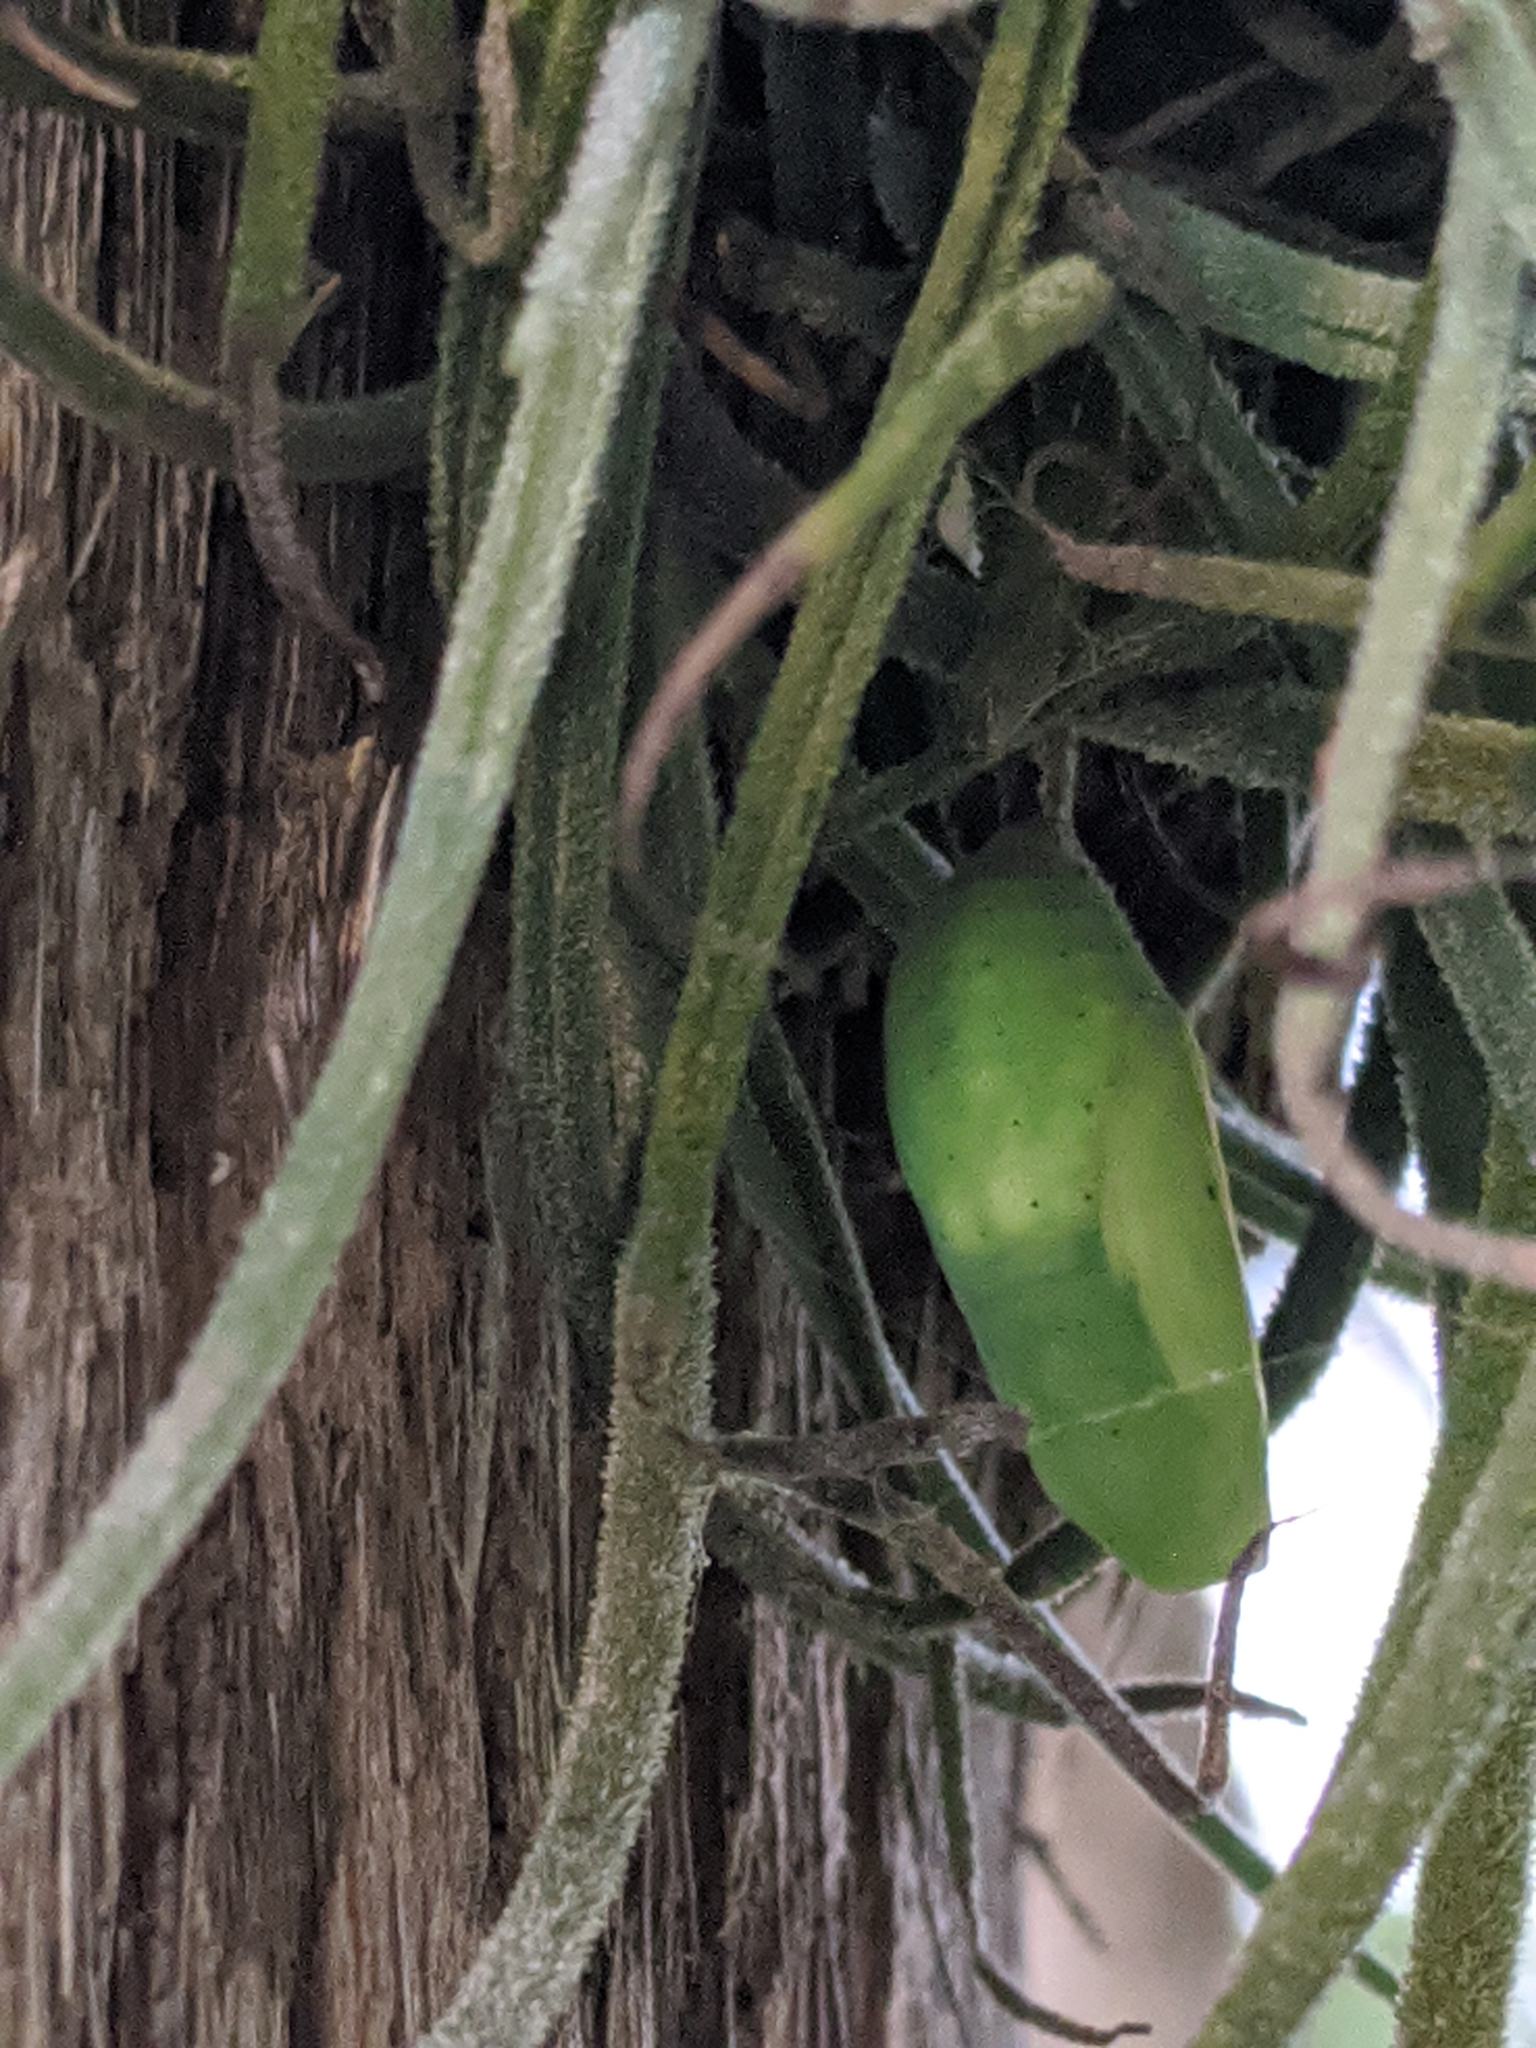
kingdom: Plantae
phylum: Tracheophyta
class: Liliopsida
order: Poales
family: Bromeliaceae
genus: Tillandsia
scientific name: Tillandsia recurvata
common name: Small ballmoss
